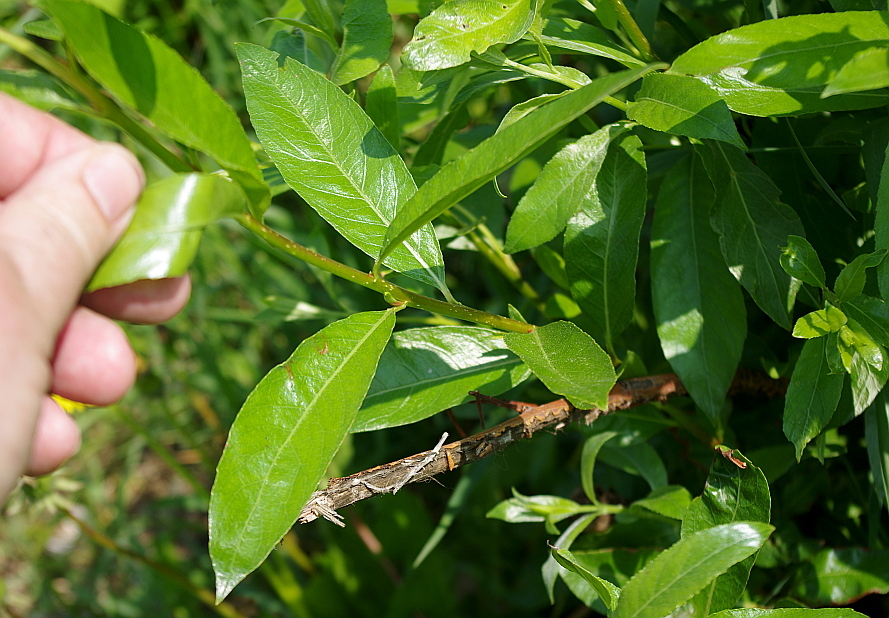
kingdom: Plantae
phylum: Tracheophyta
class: Magnoliopsida
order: Malpighiales
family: Salicaceae
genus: Salix
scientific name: Salix triandra
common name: Almond willow
